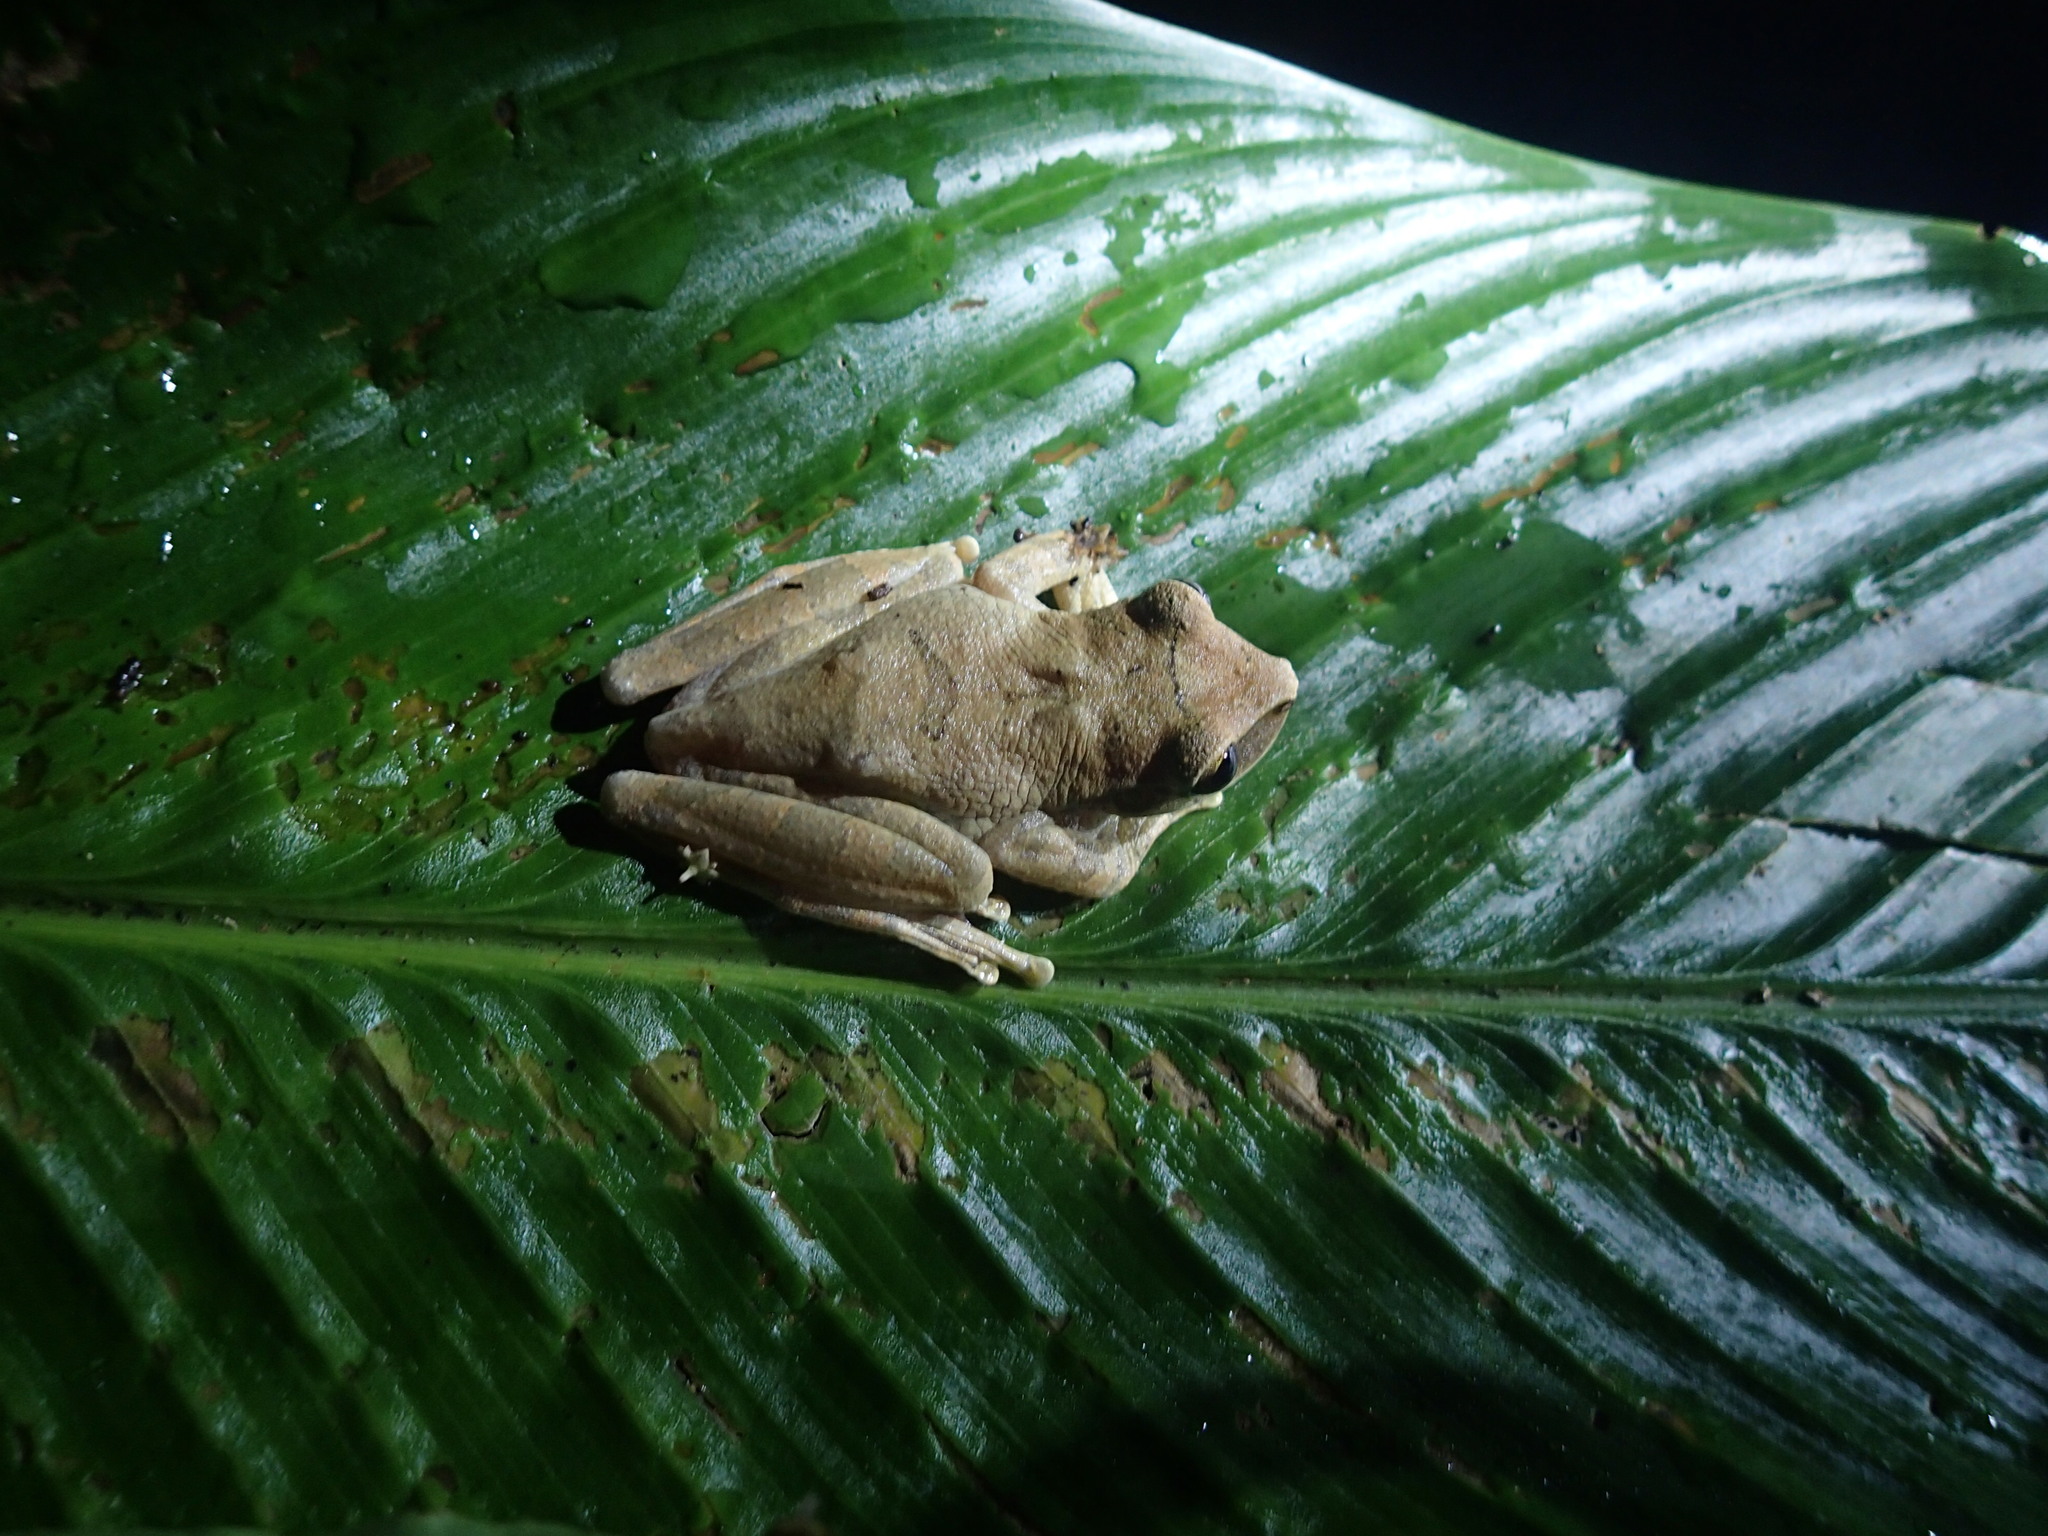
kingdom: Animalia
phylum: Chordata
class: Amphibia
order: Anura
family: Hylidae
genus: Osteocephalus
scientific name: Osteocephalus planiceps
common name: Flat headed bromeliad treefrog
